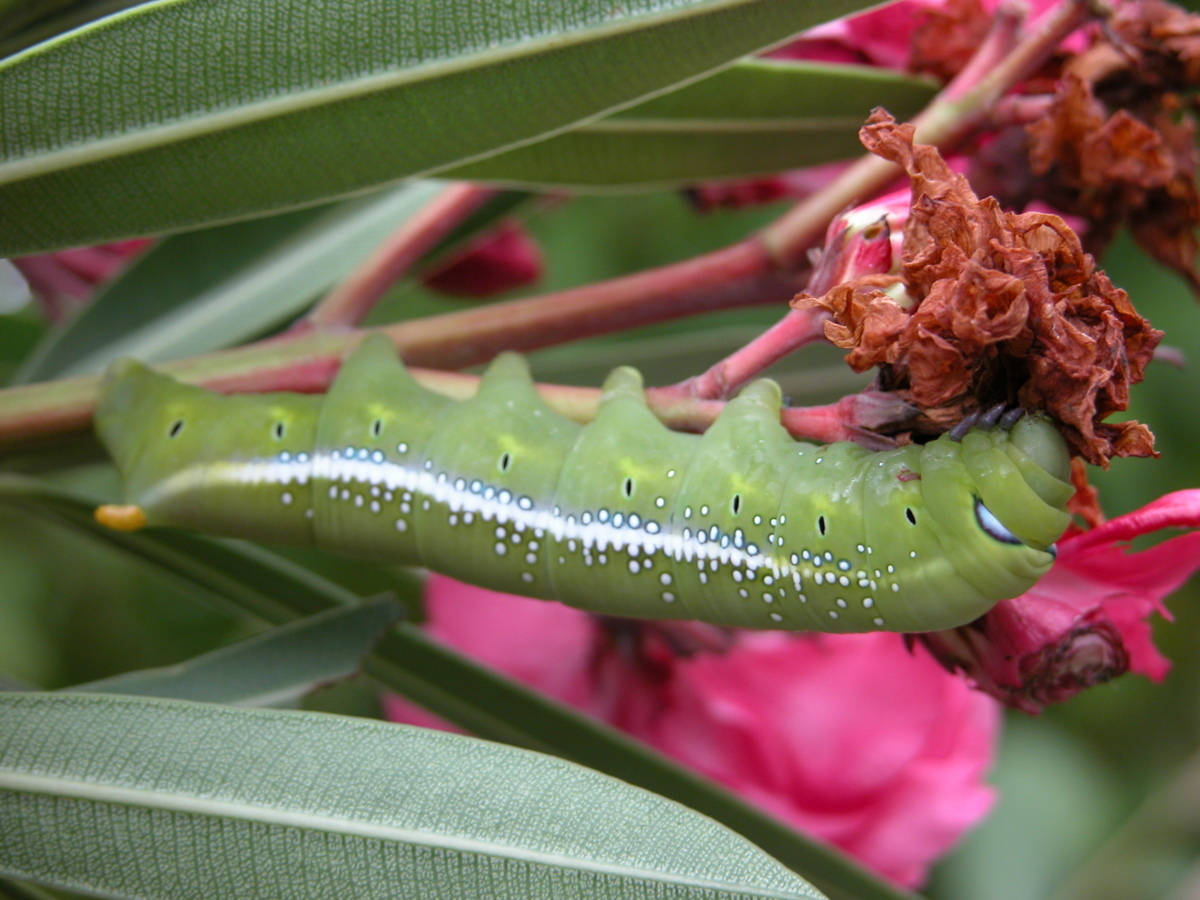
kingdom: Animalia
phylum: Arthropoda
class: Insecta
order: Lepidoptera
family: Sphingidae
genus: Daphnis
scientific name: Daphnis nerii
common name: Oleander hawk-moth
